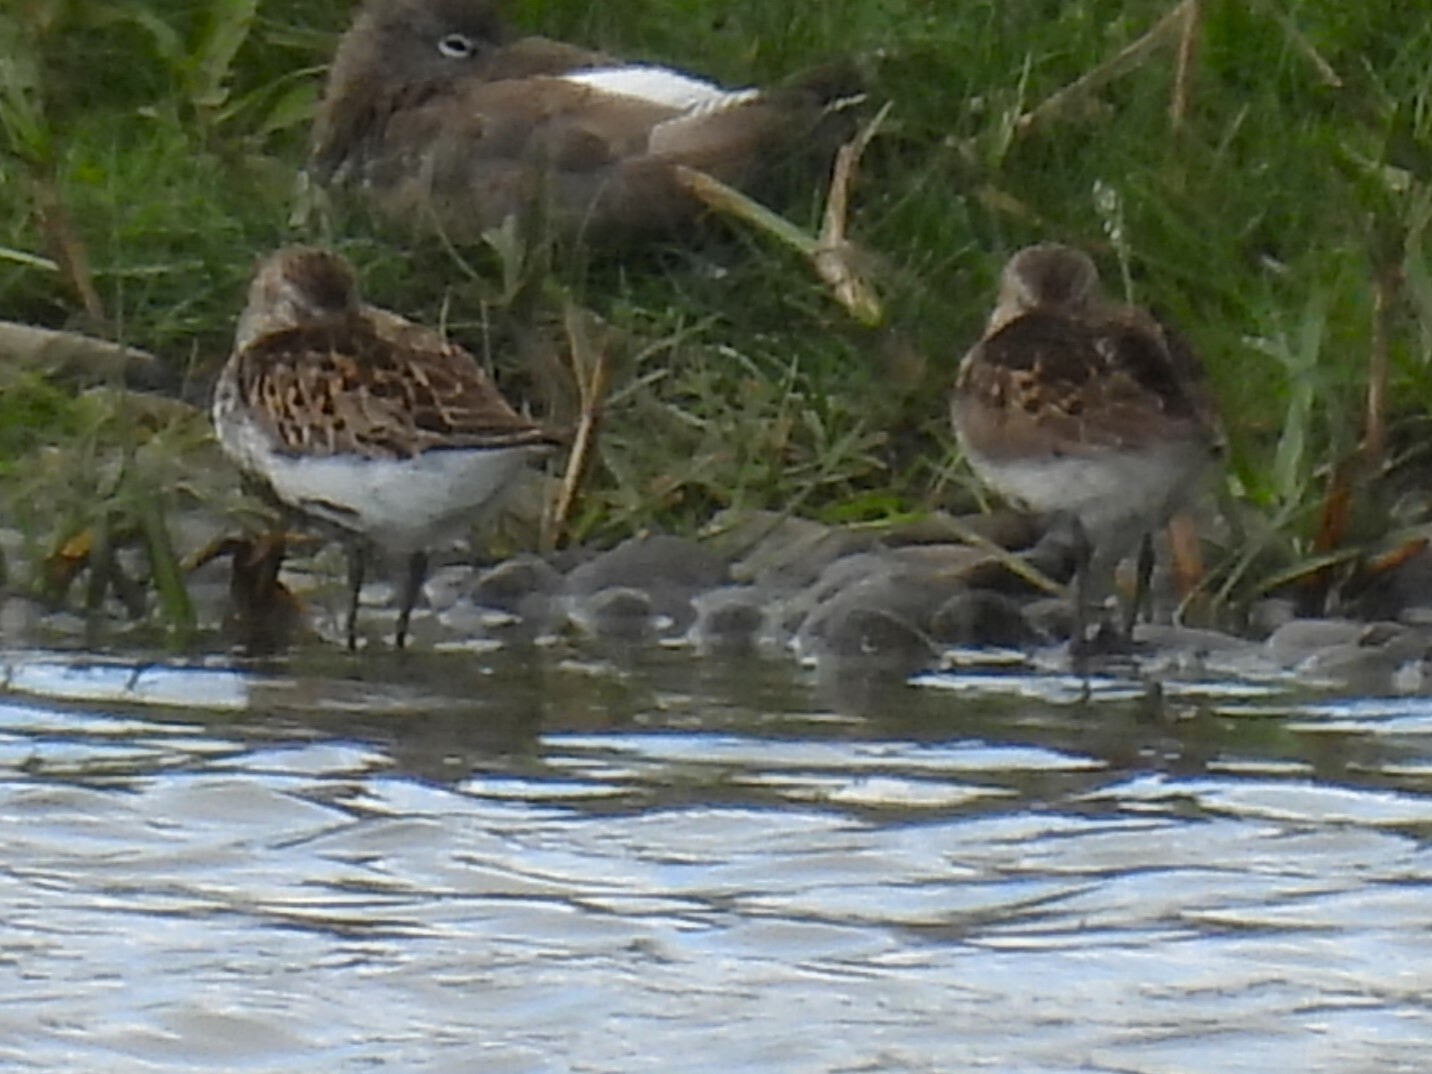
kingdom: Animalia
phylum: Chordata
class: Aves
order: Charadriiformes
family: Scolopacidae
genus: Calidris
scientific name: Calidris alpina
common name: Dunlin
